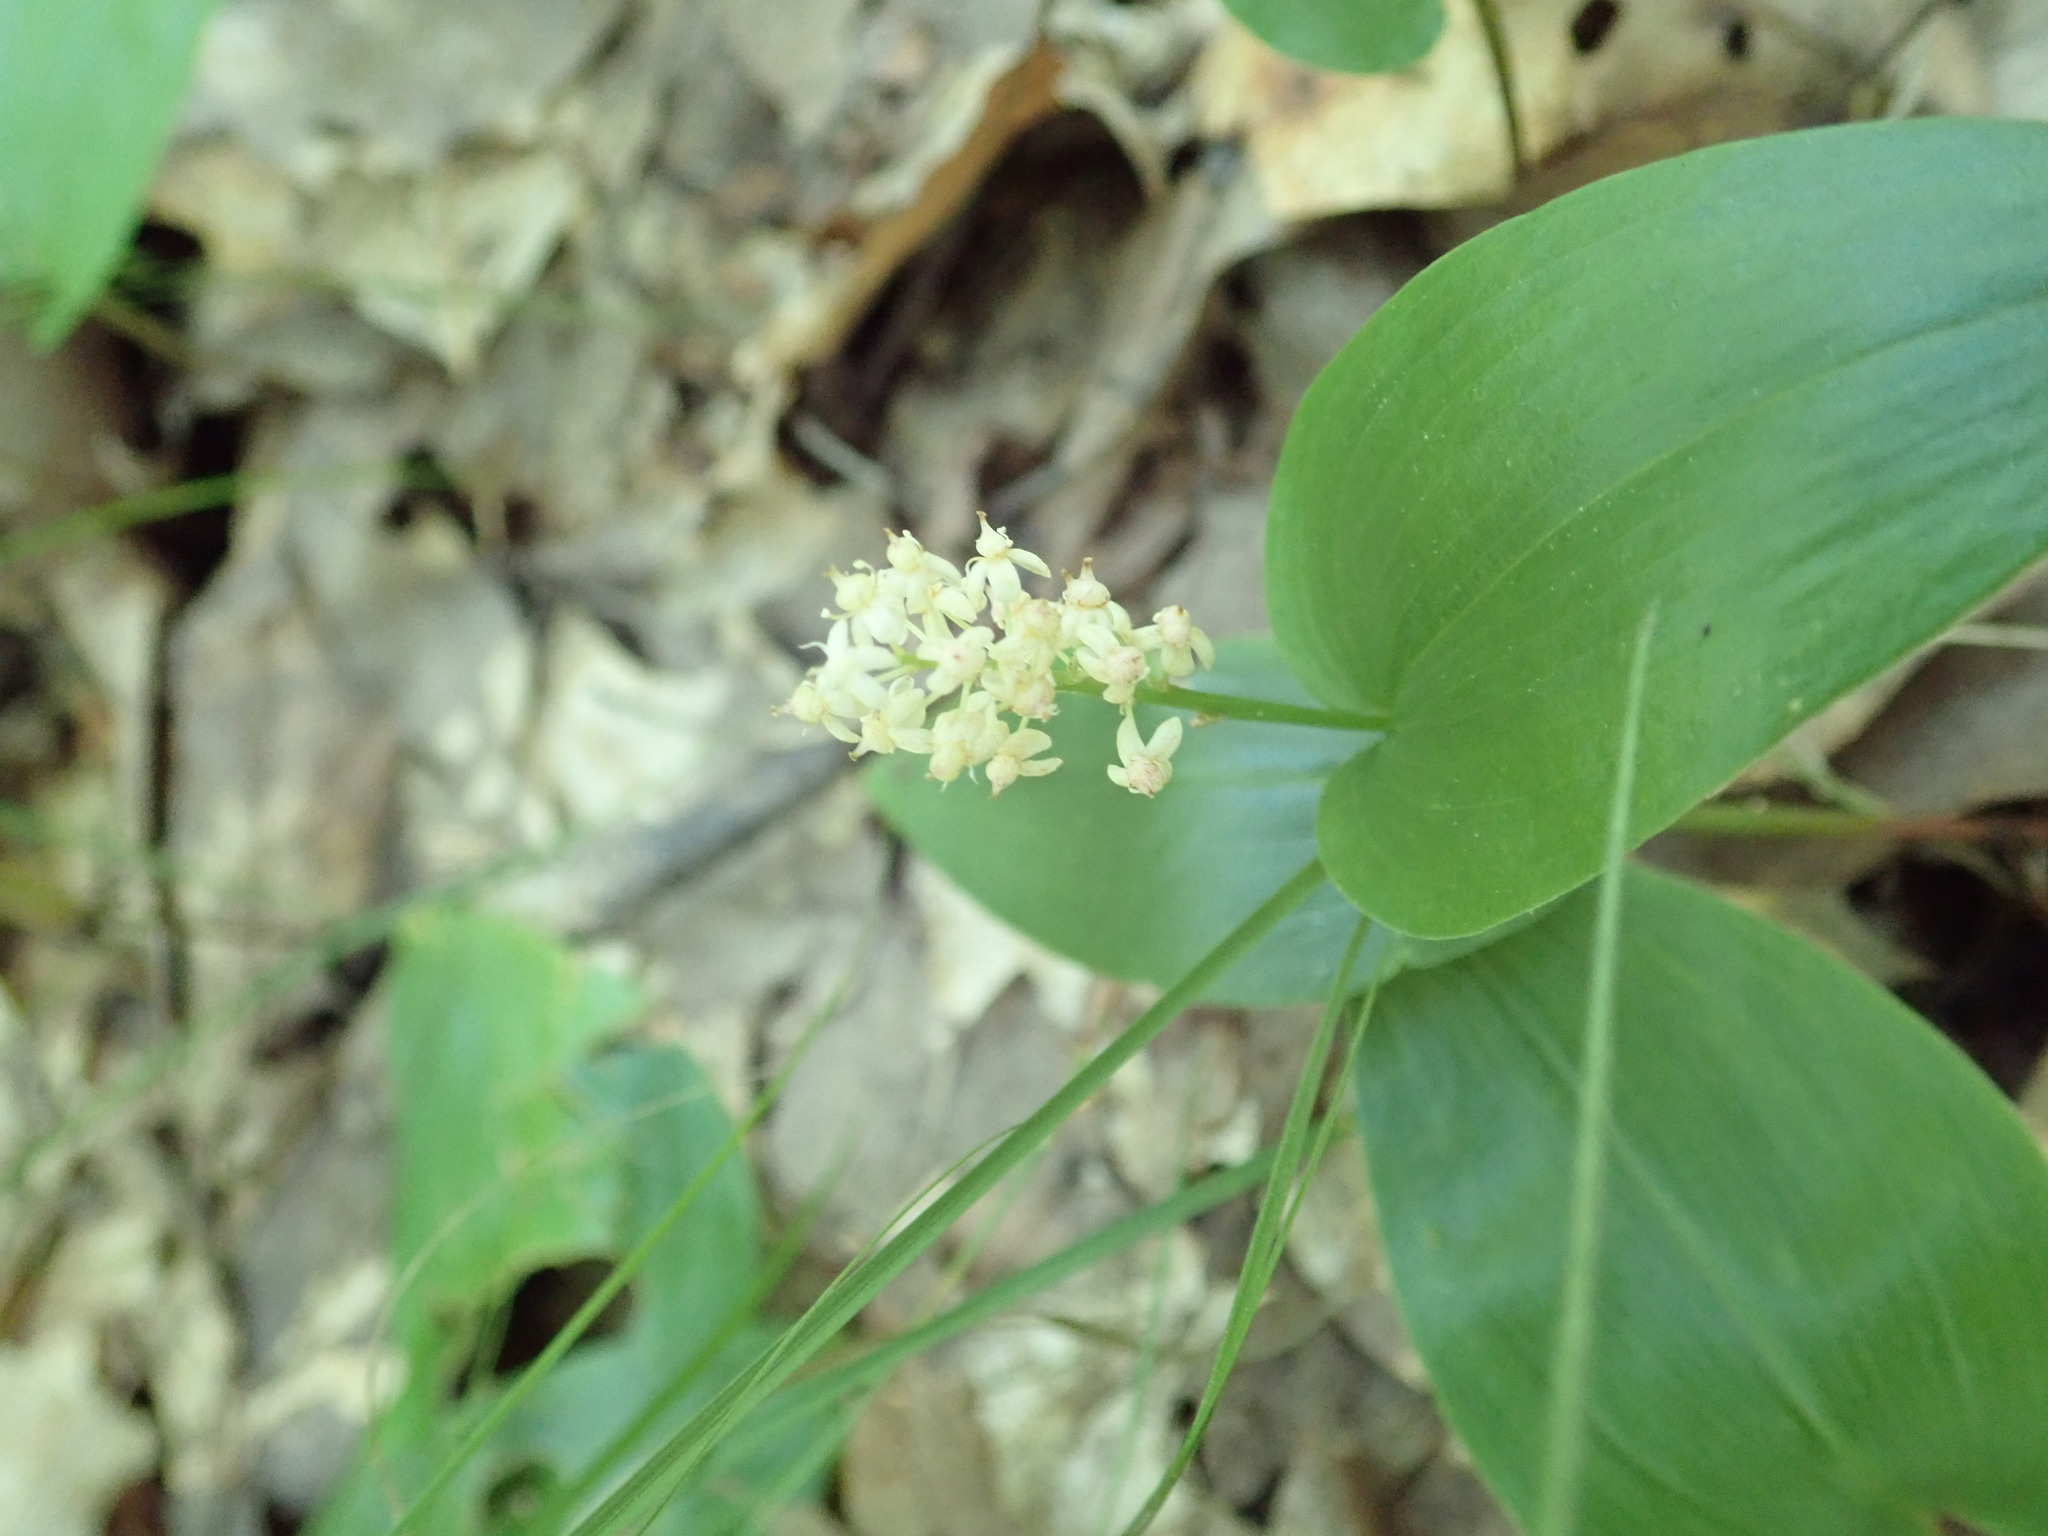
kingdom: Plantae
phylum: Tracheophyta
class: Liliopsida
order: Asparagales
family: Asparagaceae
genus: Maianthemum
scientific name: Maianthemum canadense
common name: False lily-of-the-valley
